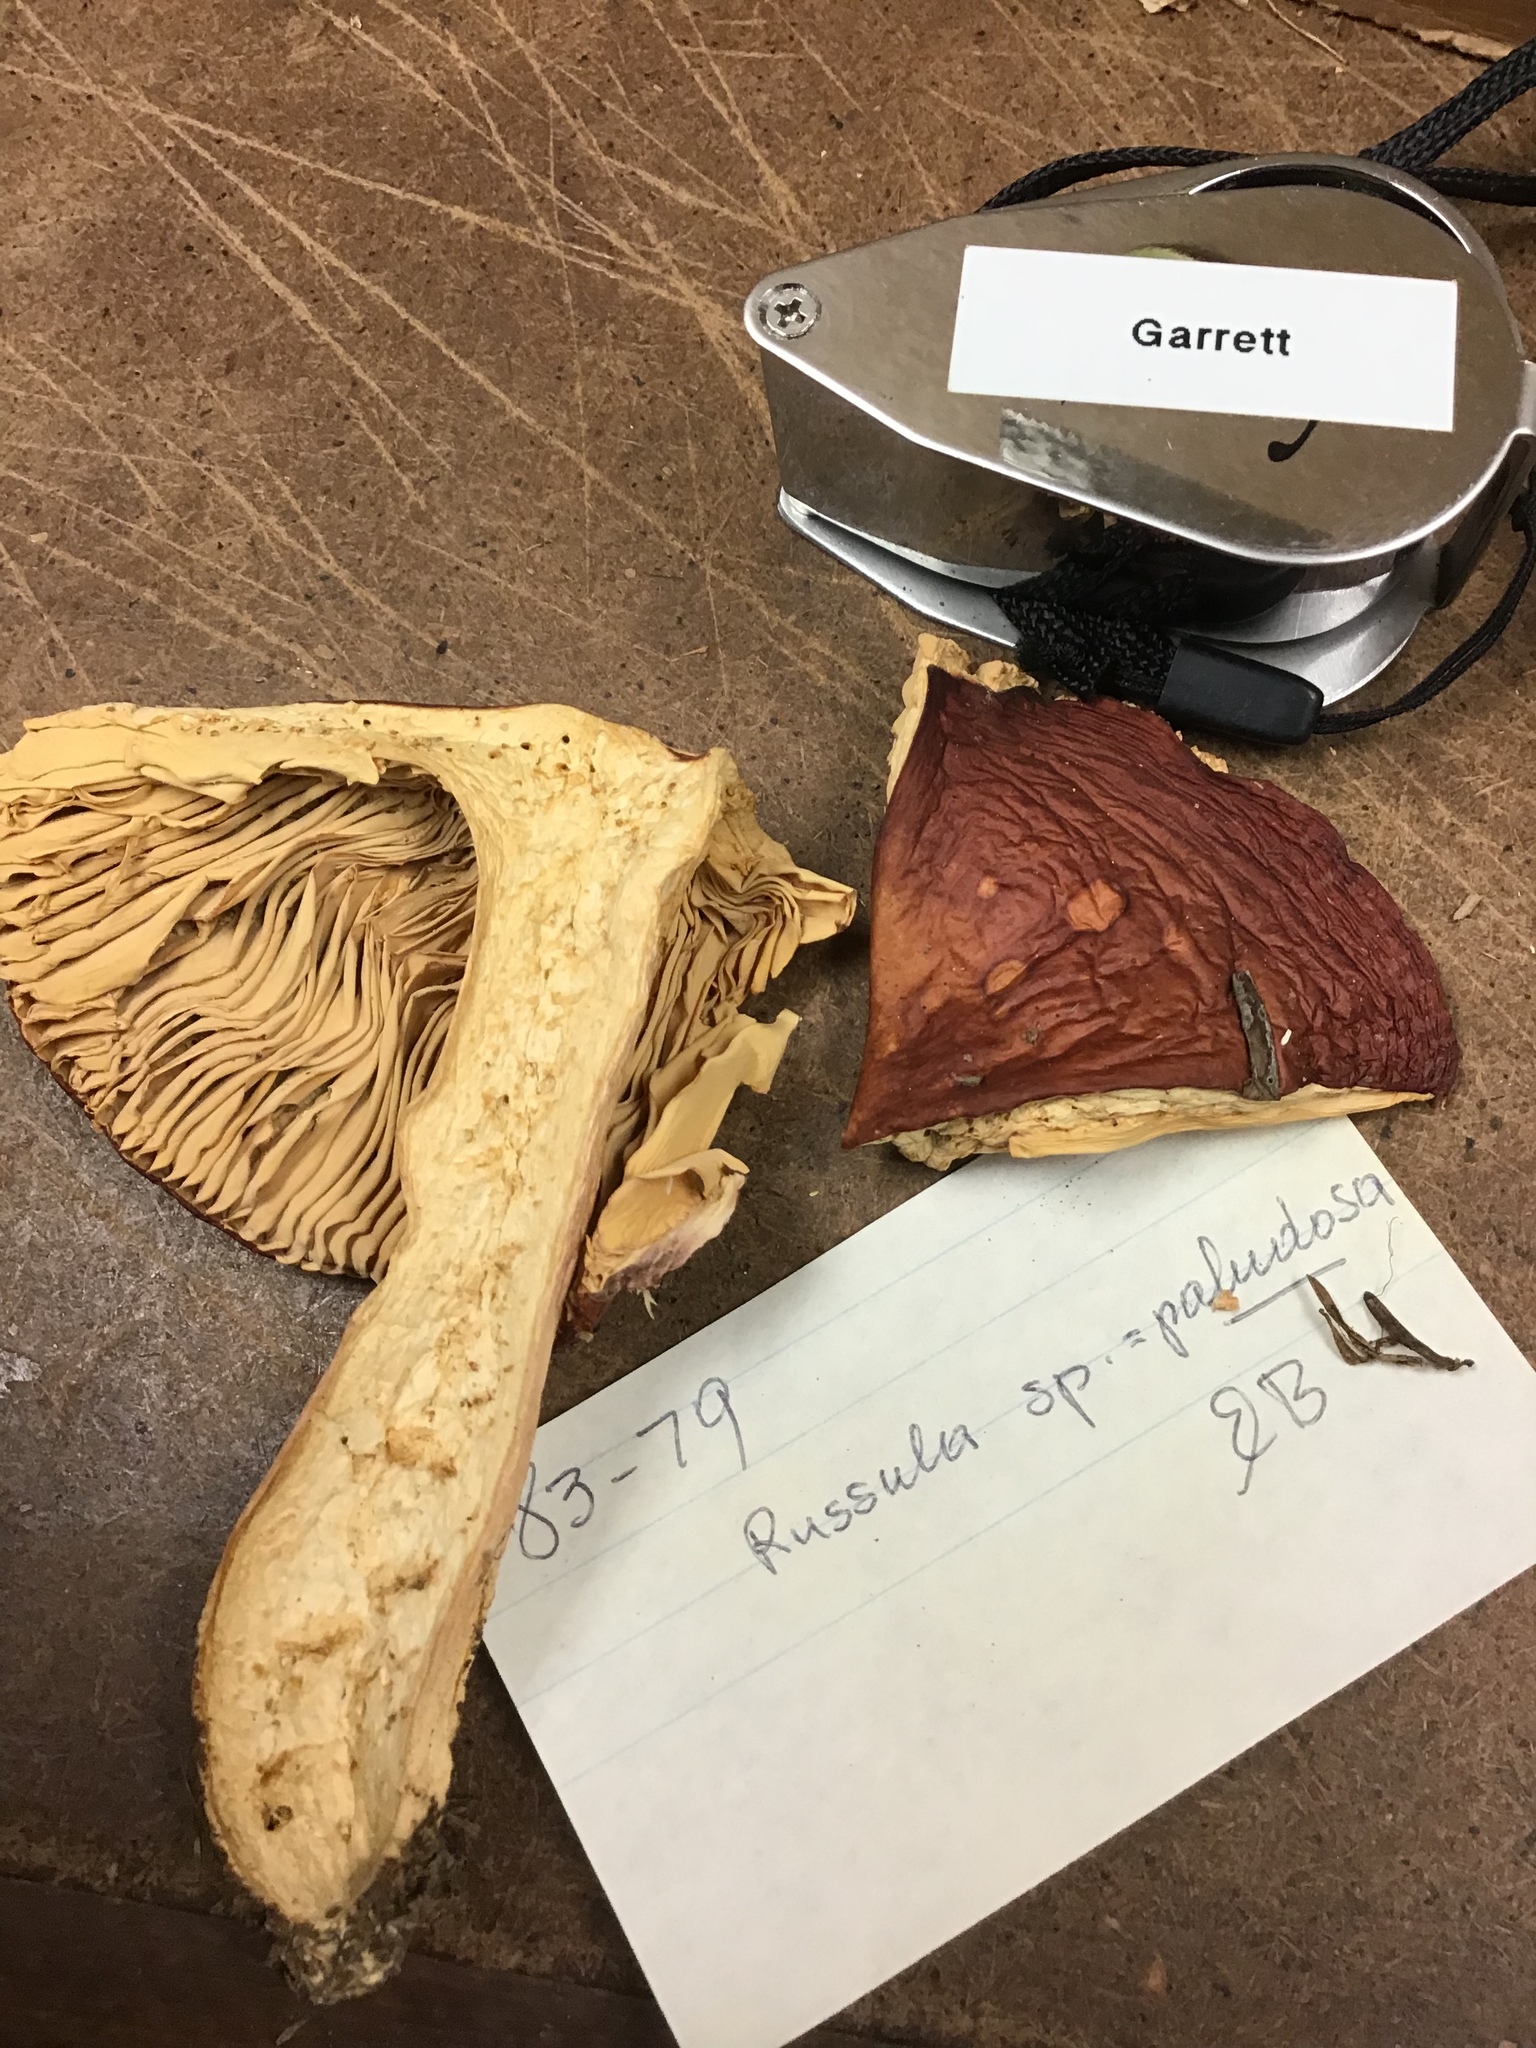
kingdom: Fungi
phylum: Basidiomycota
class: Agaricomycetes
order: Russulales
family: Russulaceae
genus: Russula
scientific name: Russula paludosa
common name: Hintapink
